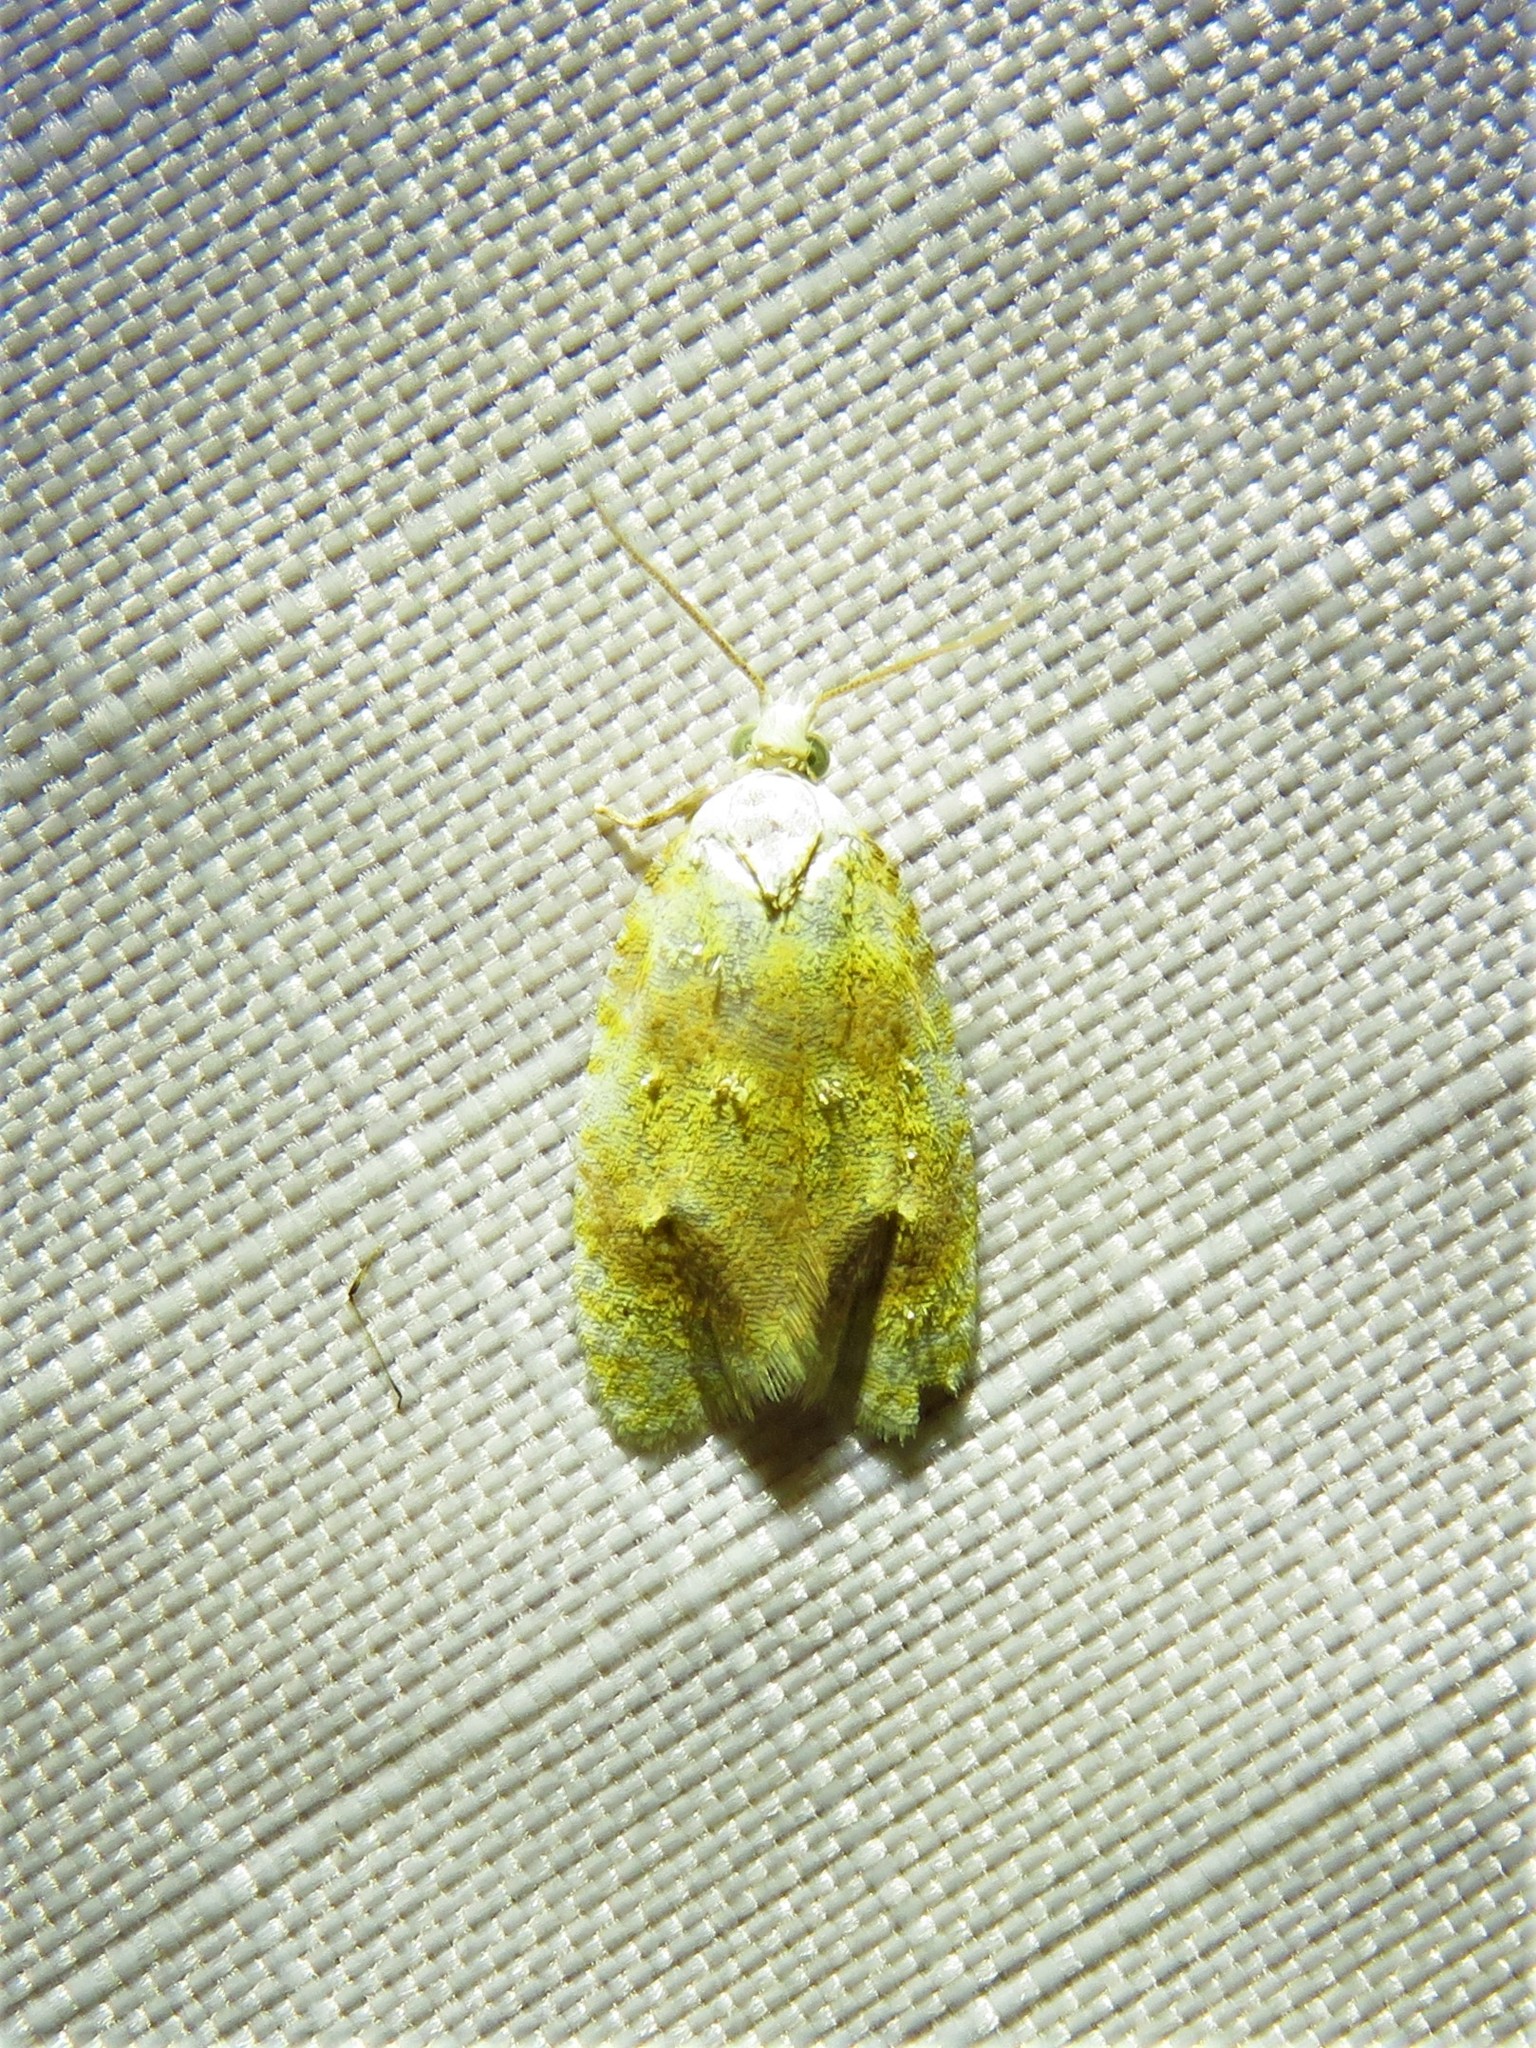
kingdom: Animalia
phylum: Arthropoda
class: Insecta
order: Lepidoptera
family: Tortricidae
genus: Acleris
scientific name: Acleris semipurpurana
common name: Oak leaftier moth
